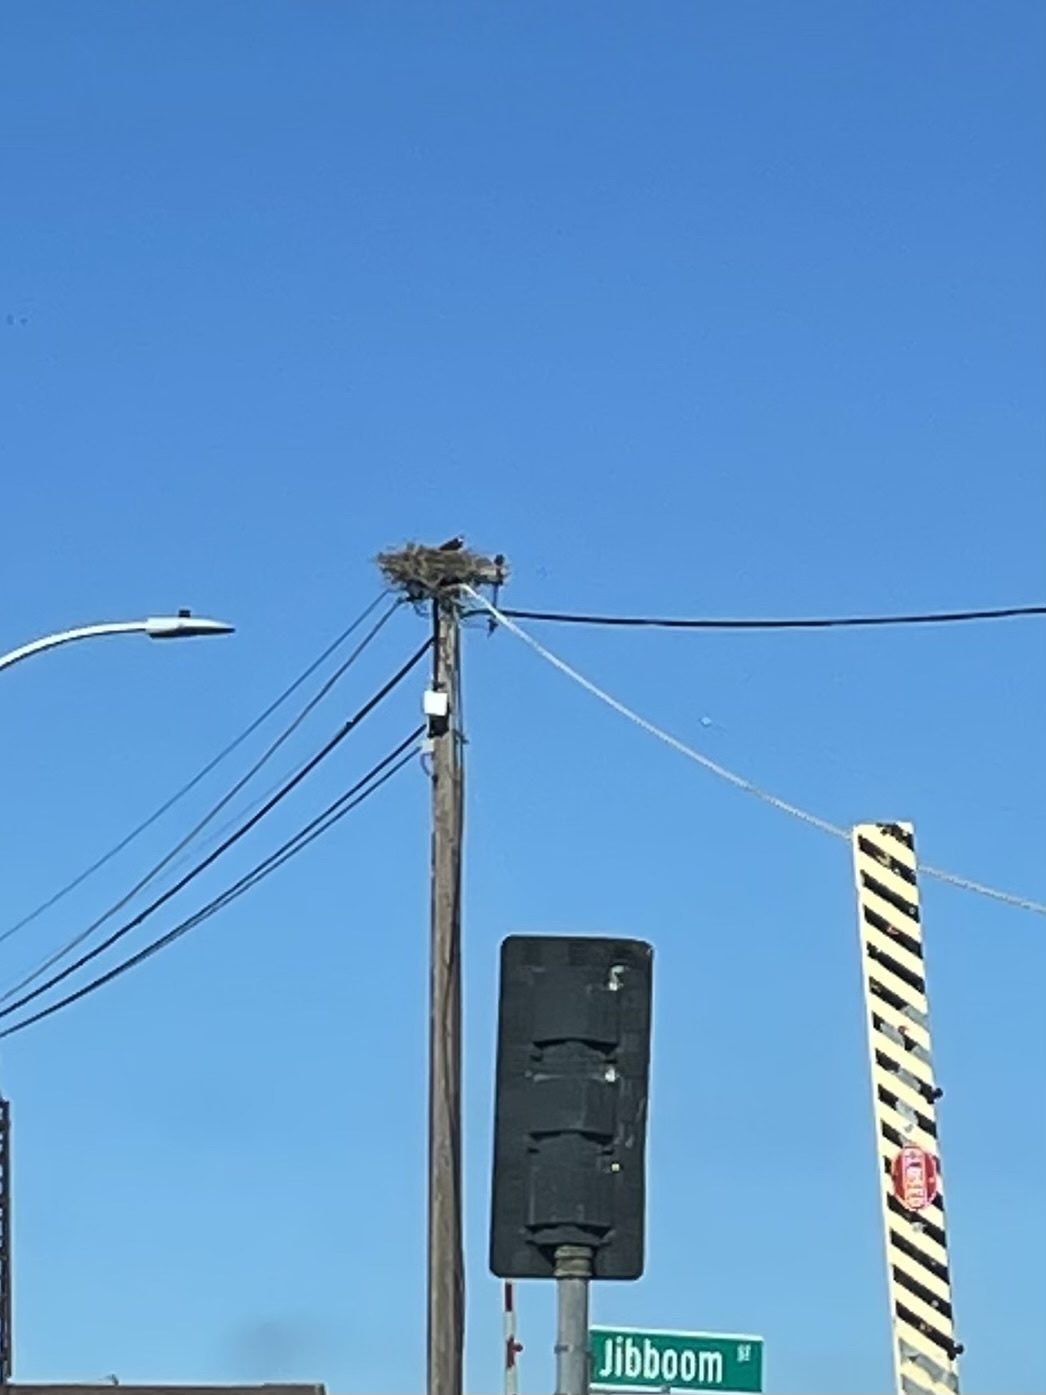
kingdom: Animalia
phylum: Chordata
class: Aves
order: Accipitriformes
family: Pandionidae
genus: Pandion
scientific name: Pandion haliaetus
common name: Osprey
